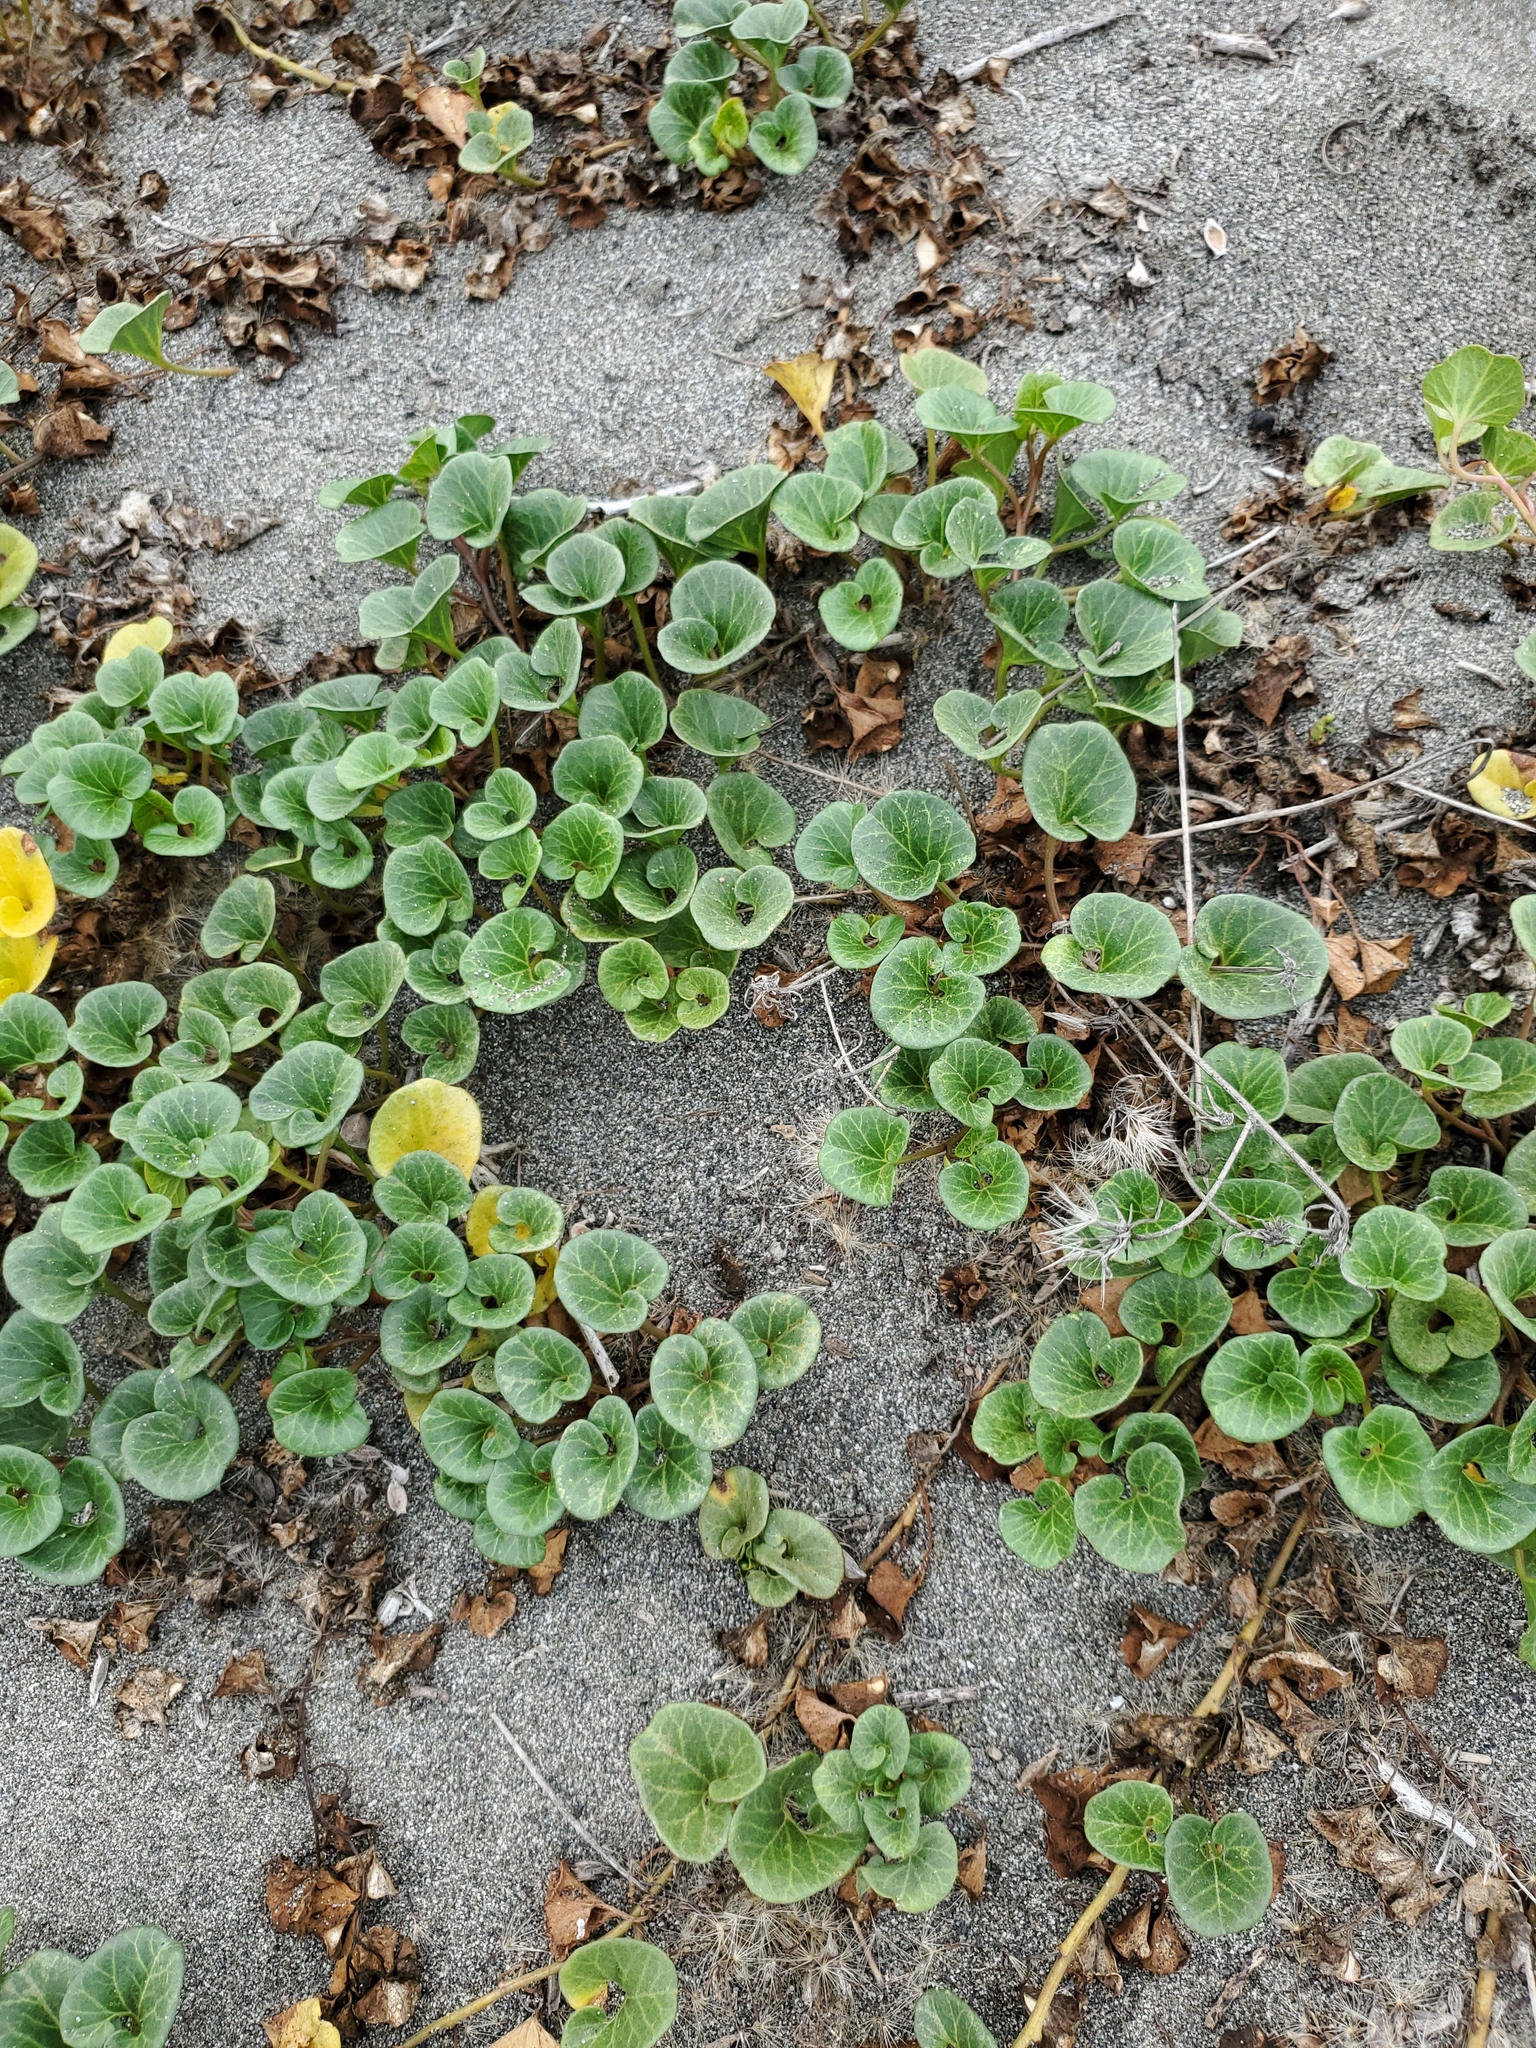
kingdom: Plantae
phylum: Tracheophyta
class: Magnoliopsida
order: Solanales
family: Convolvulaceae
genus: Calystegia
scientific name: Calystegia soldanella
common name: Sea bindweed
